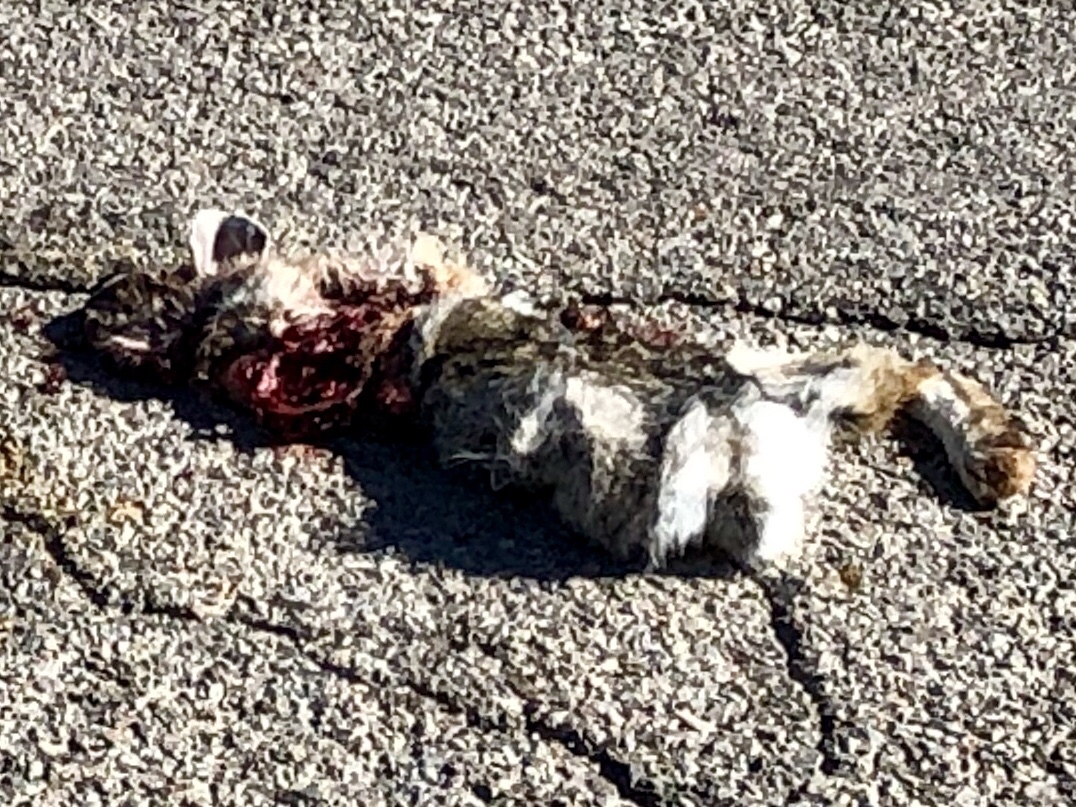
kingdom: Animalia
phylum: Chordata
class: Mammalia
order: Lagomorpha
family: Leporidae
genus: Sylvilagus
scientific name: Sylvilagus audubonii
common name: Desert cottontail
